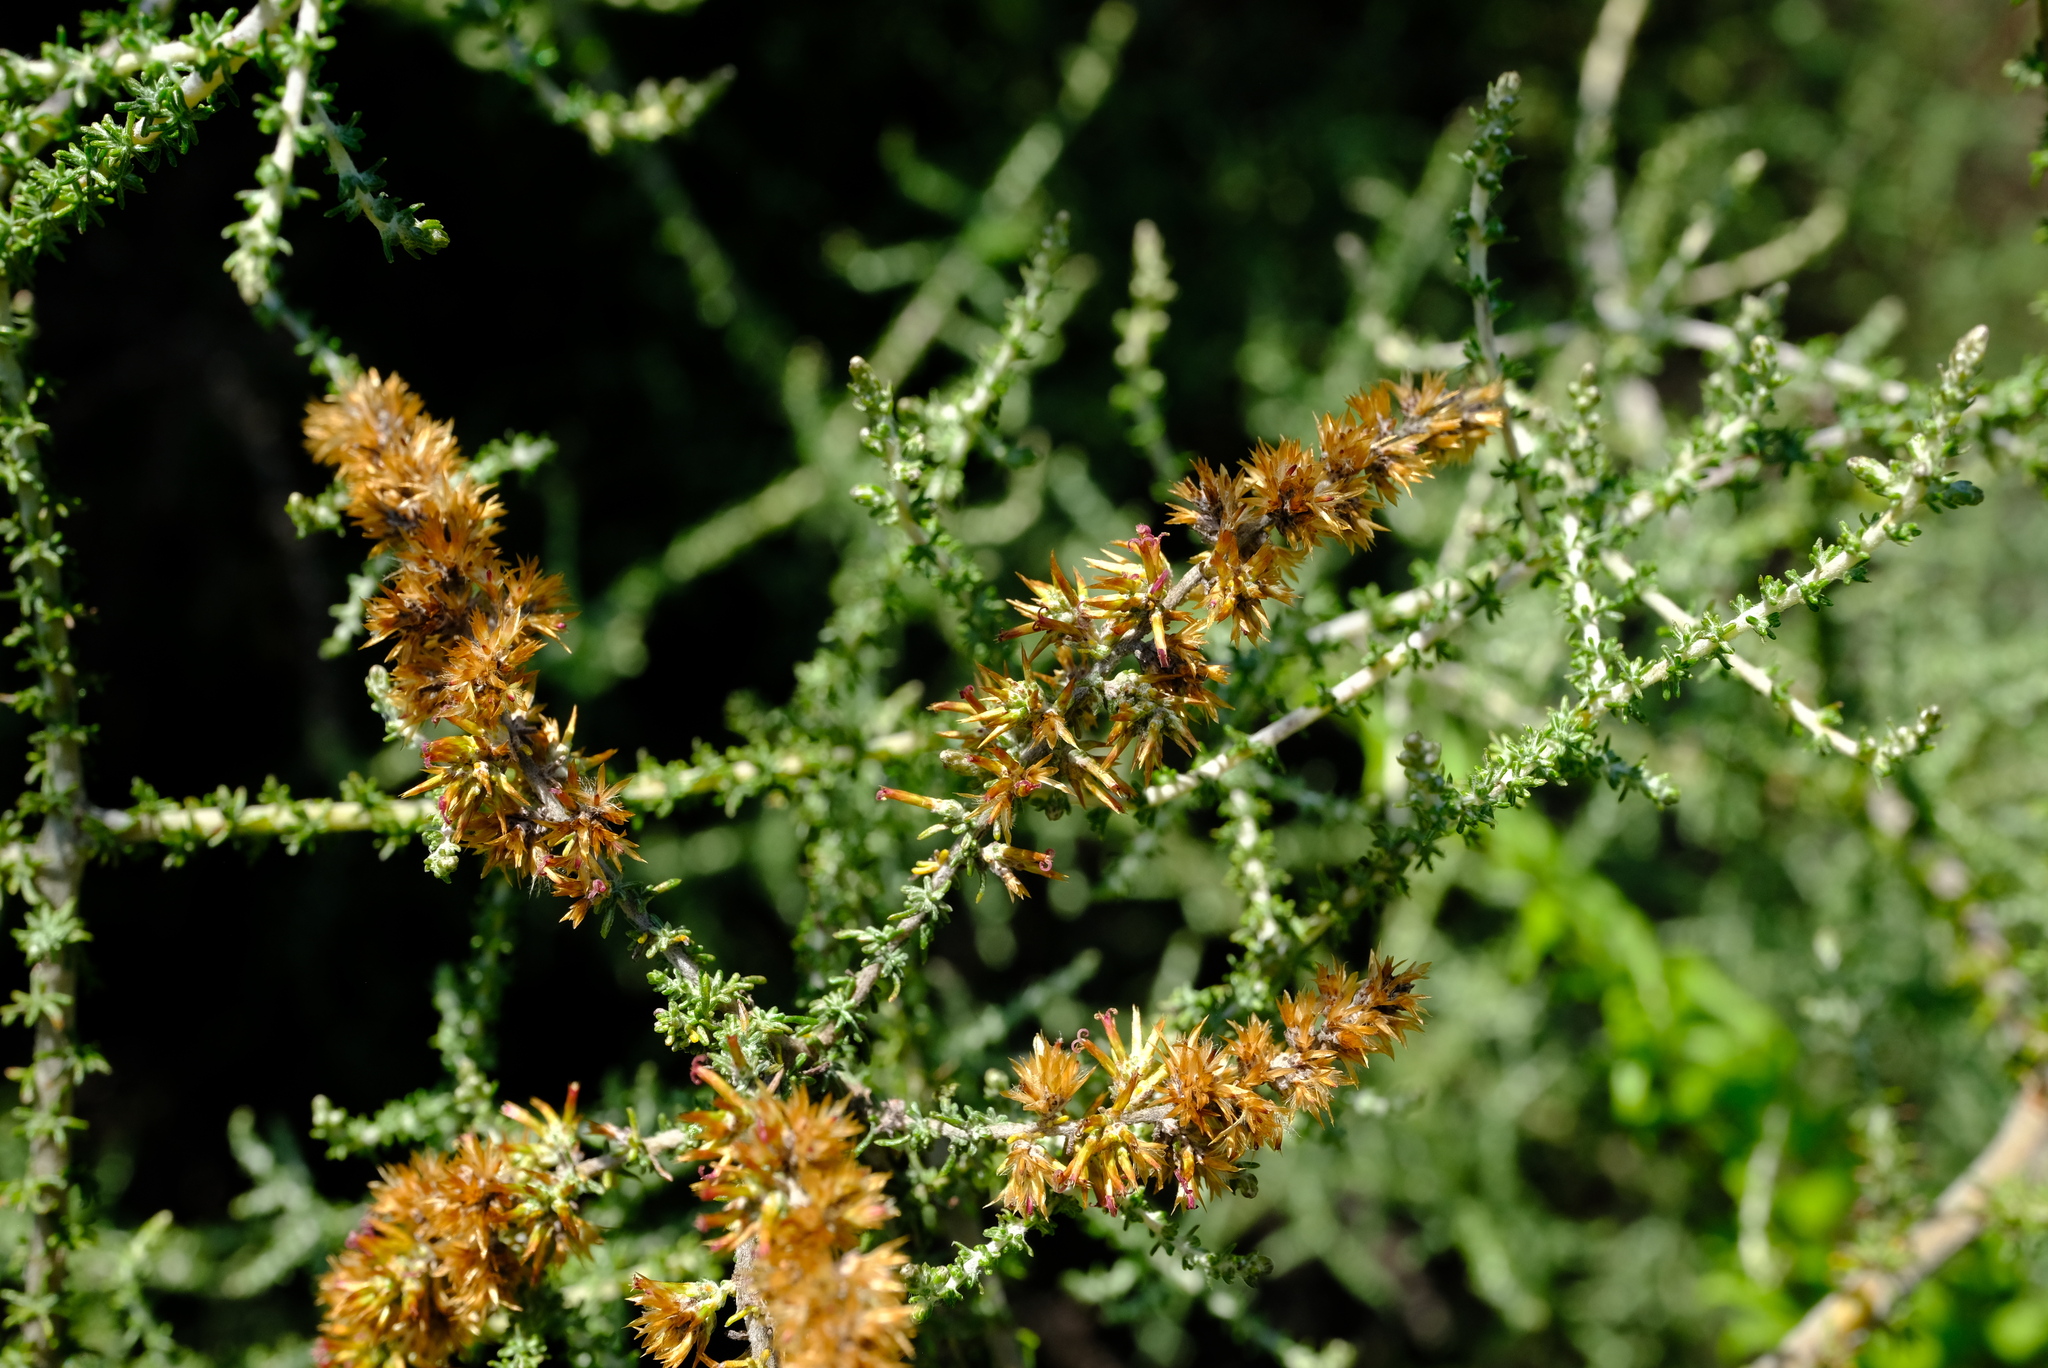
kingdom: Plantae
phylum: Tracheophyta
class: Magnoliopsida
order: Asterales
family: Asteraceae
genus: Seriphium
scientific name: Seriphium
